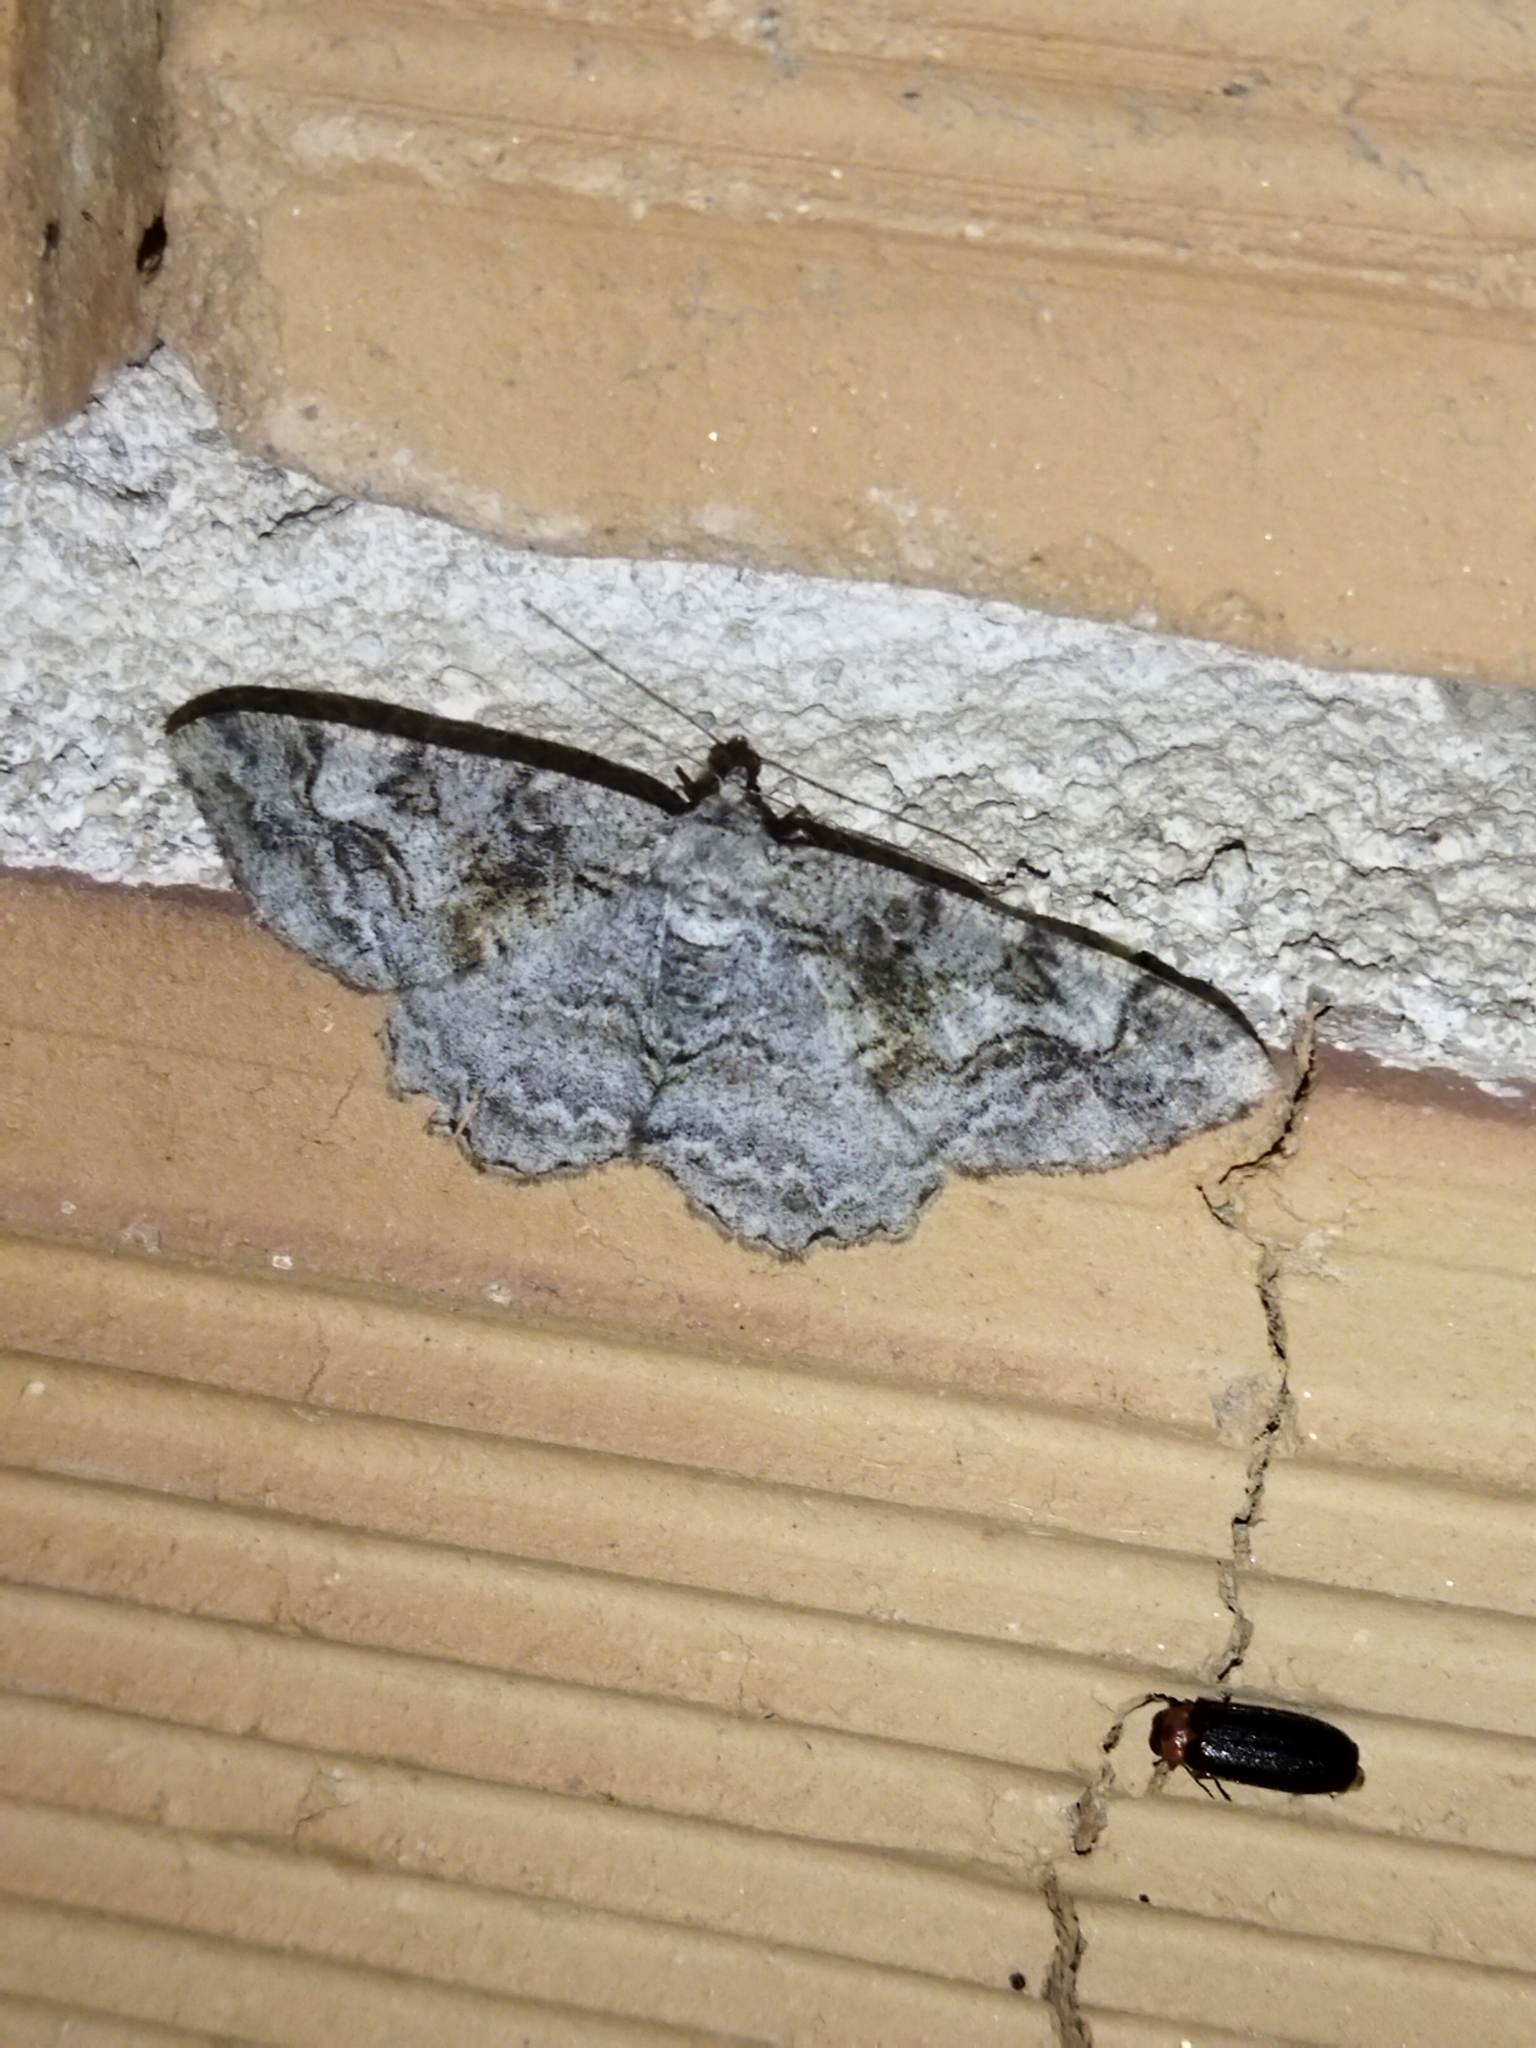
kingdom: Animalia
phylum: Arthropoda
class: Insecta
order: Lepidoptera
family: Geometridae
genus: Alcis
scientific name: Alcis repandata
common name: Mottled beauty
